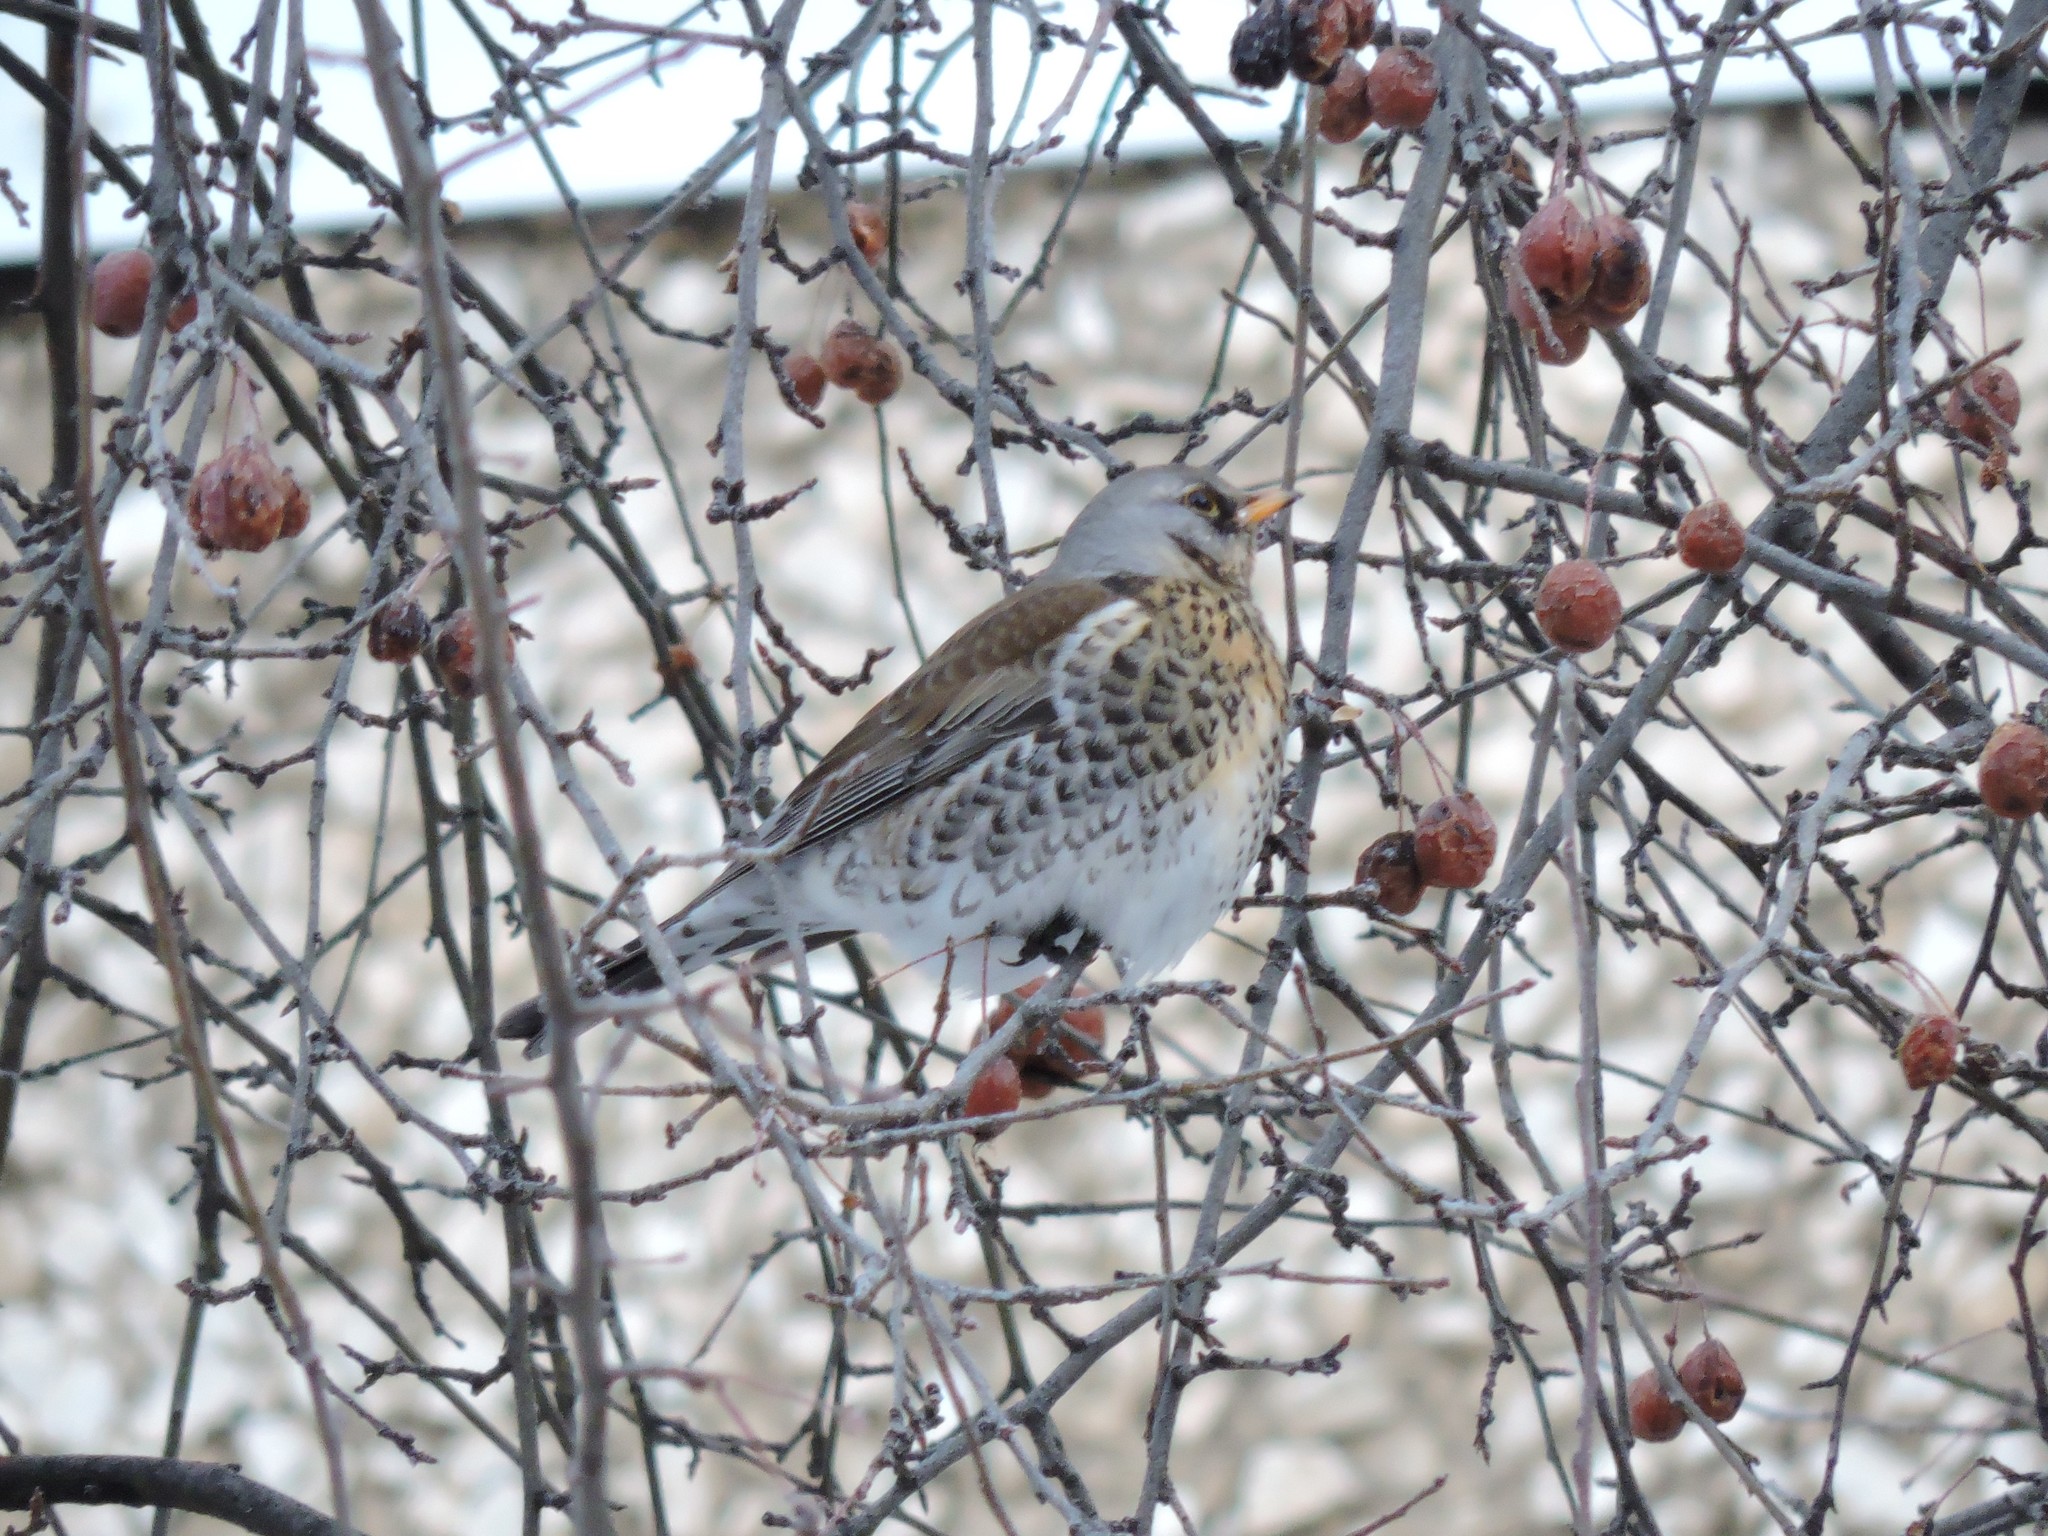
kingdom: Animalia
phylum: Chordata
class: Aves
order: Passeriformes
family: Turdidae
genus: Turdus
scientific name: Turdus pilaris
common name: Fieldfare
